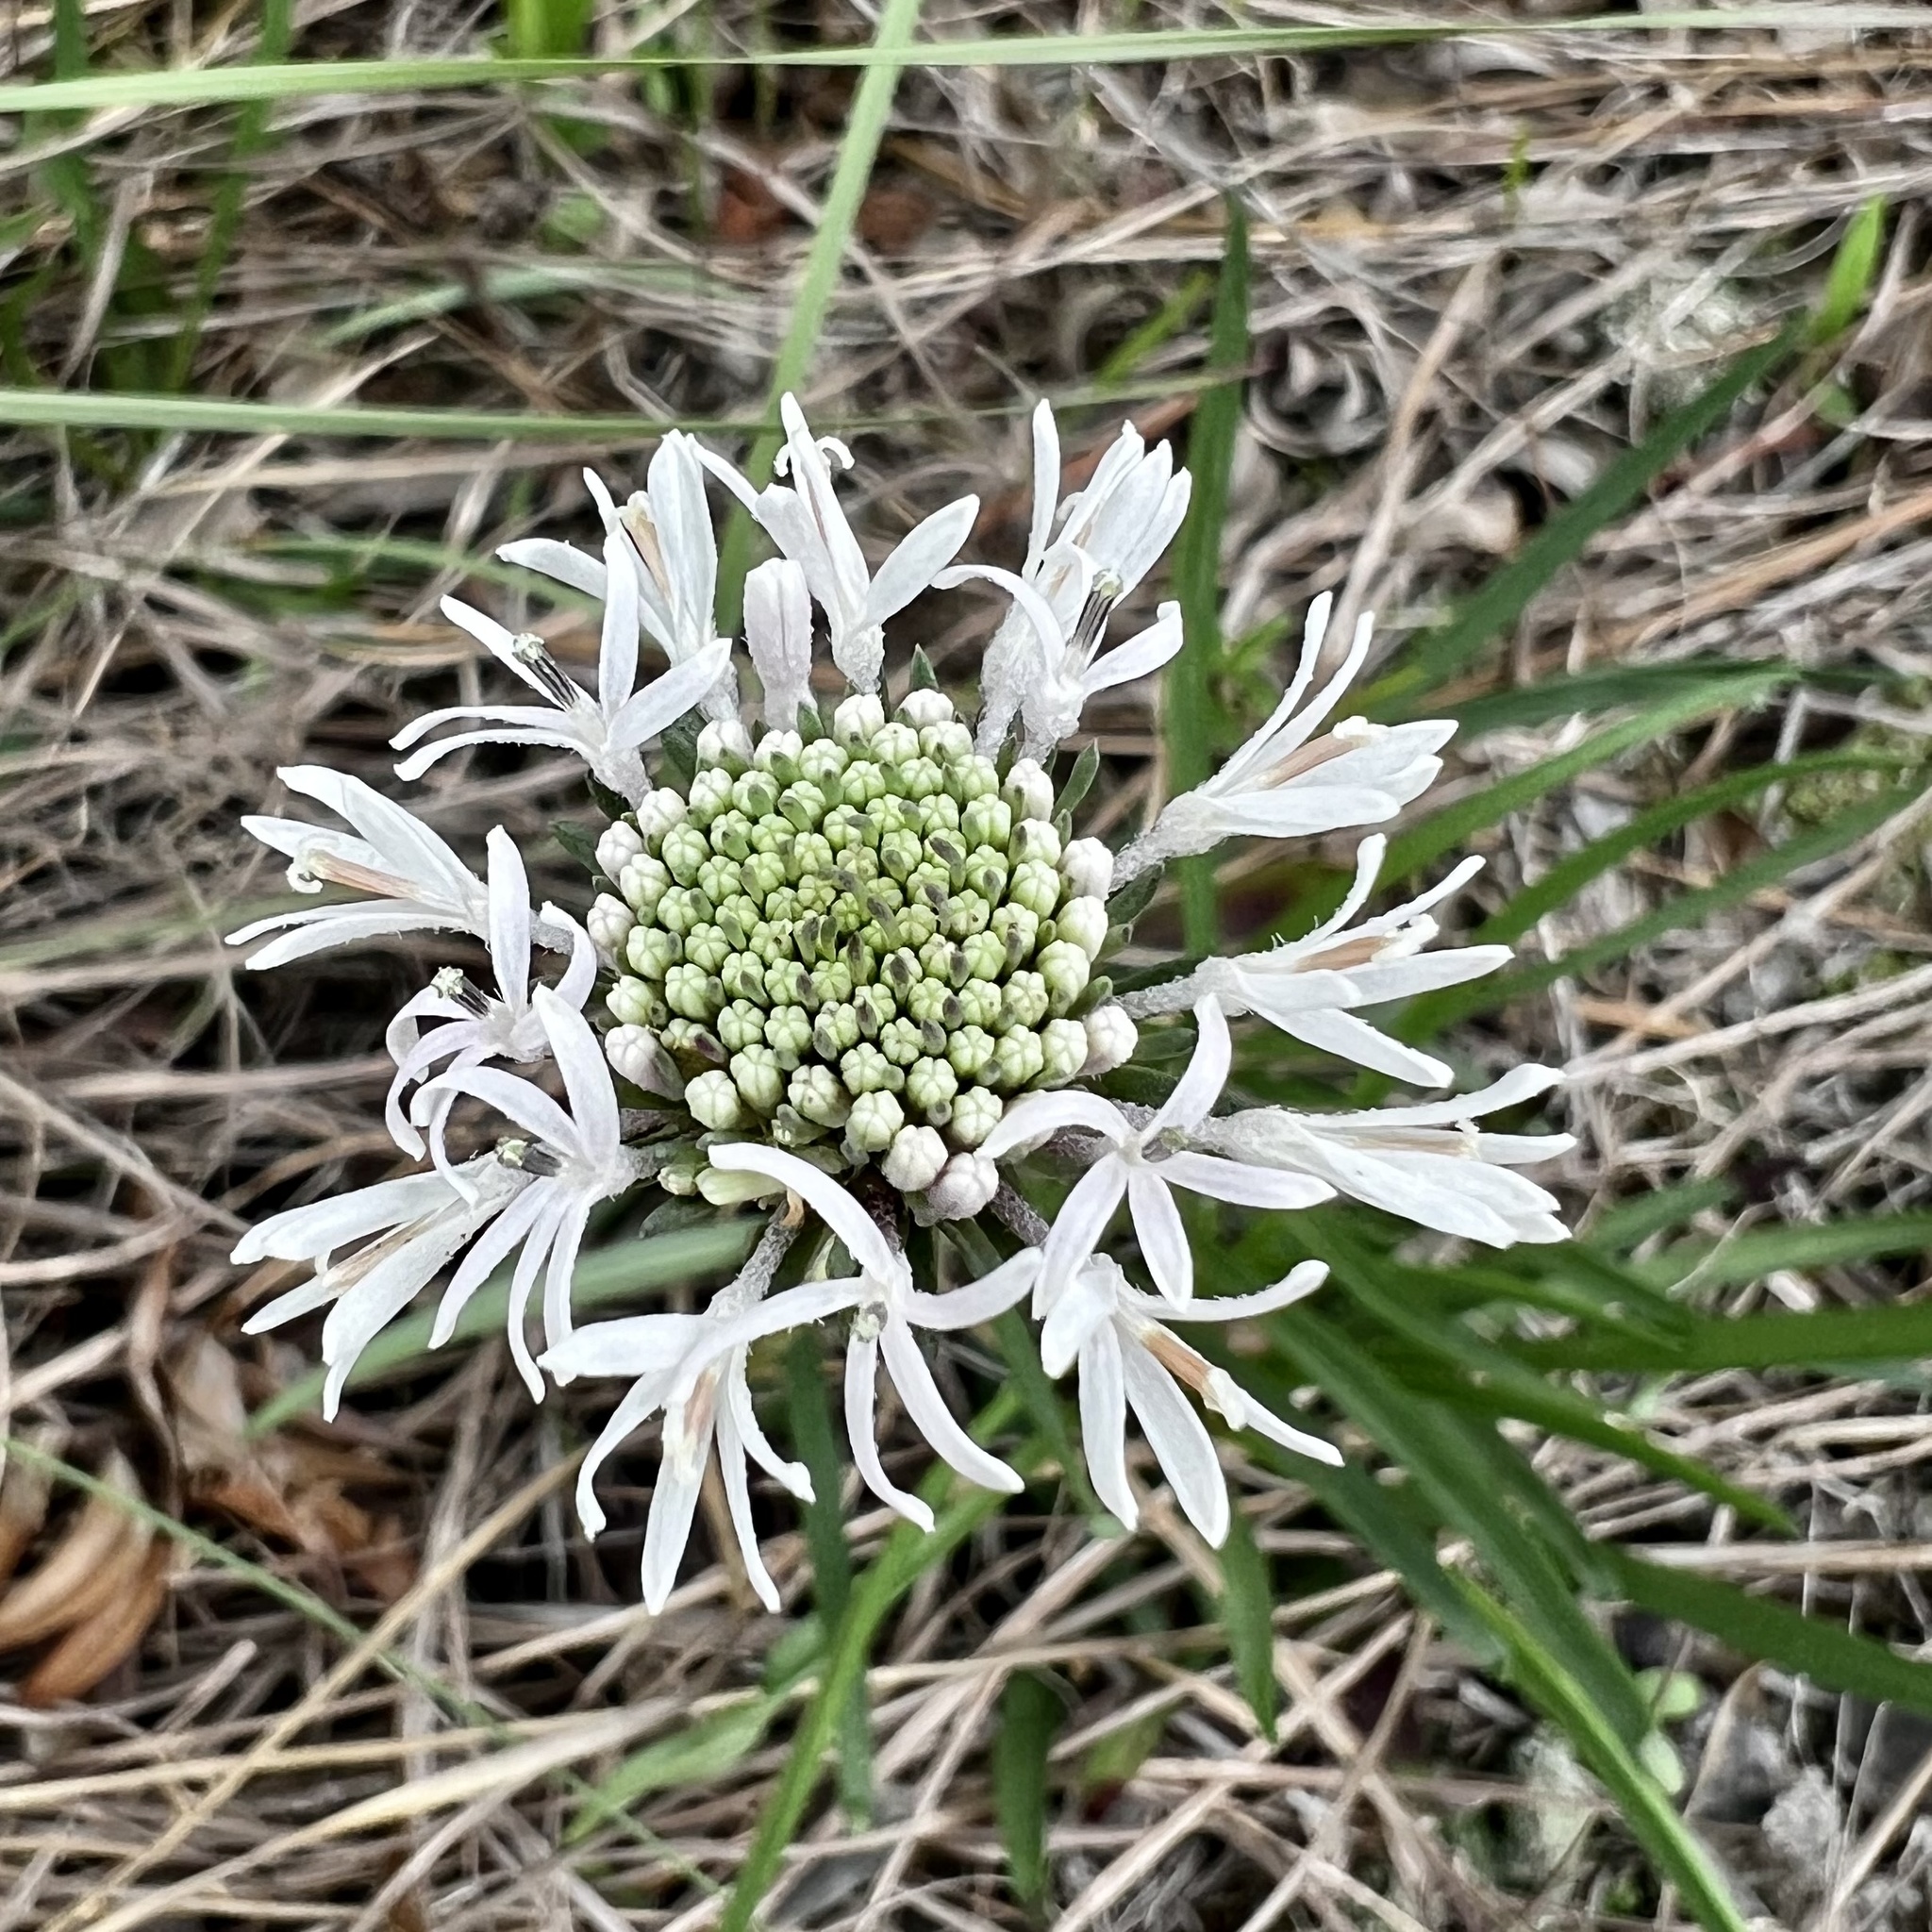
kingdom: Plantae
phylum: Tracheophyta
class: Magnoliopsida
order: Asterales
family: Asteraceae
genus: Marshallia
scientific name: Marshallia caespitosa
